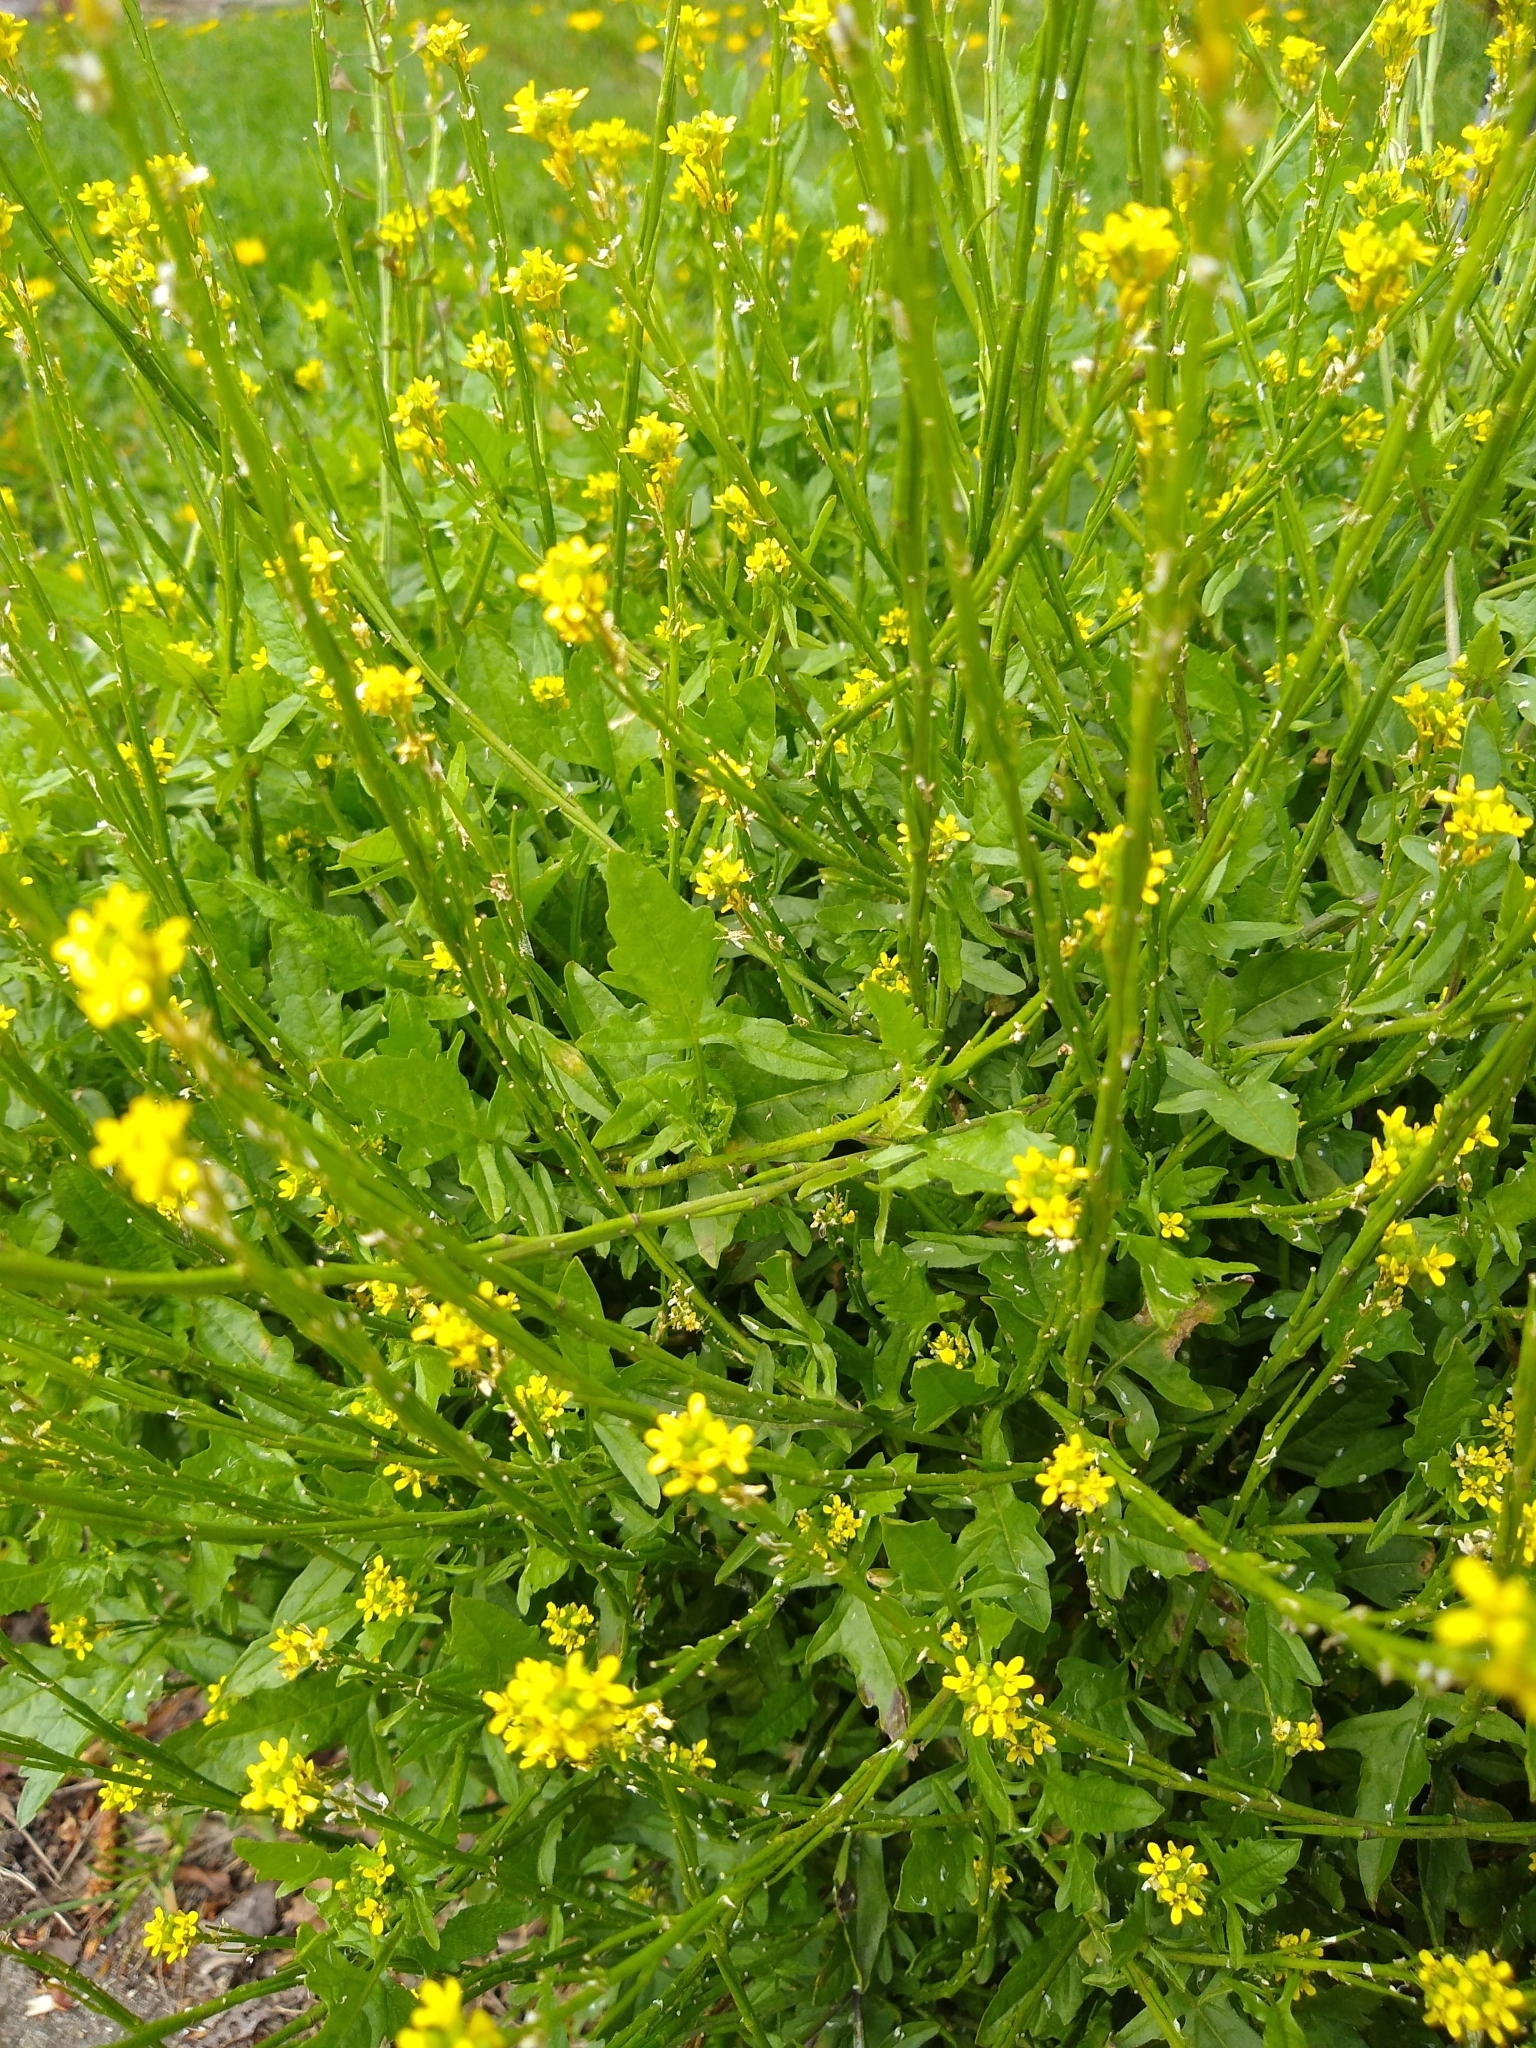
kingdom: Plantae
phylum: Tracheophyta
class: Magnoliopsida
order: Brassicales
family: Brassicaceae
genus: Sisymbrium
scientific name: Sisymbrium officinale
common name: Hedge mustard
